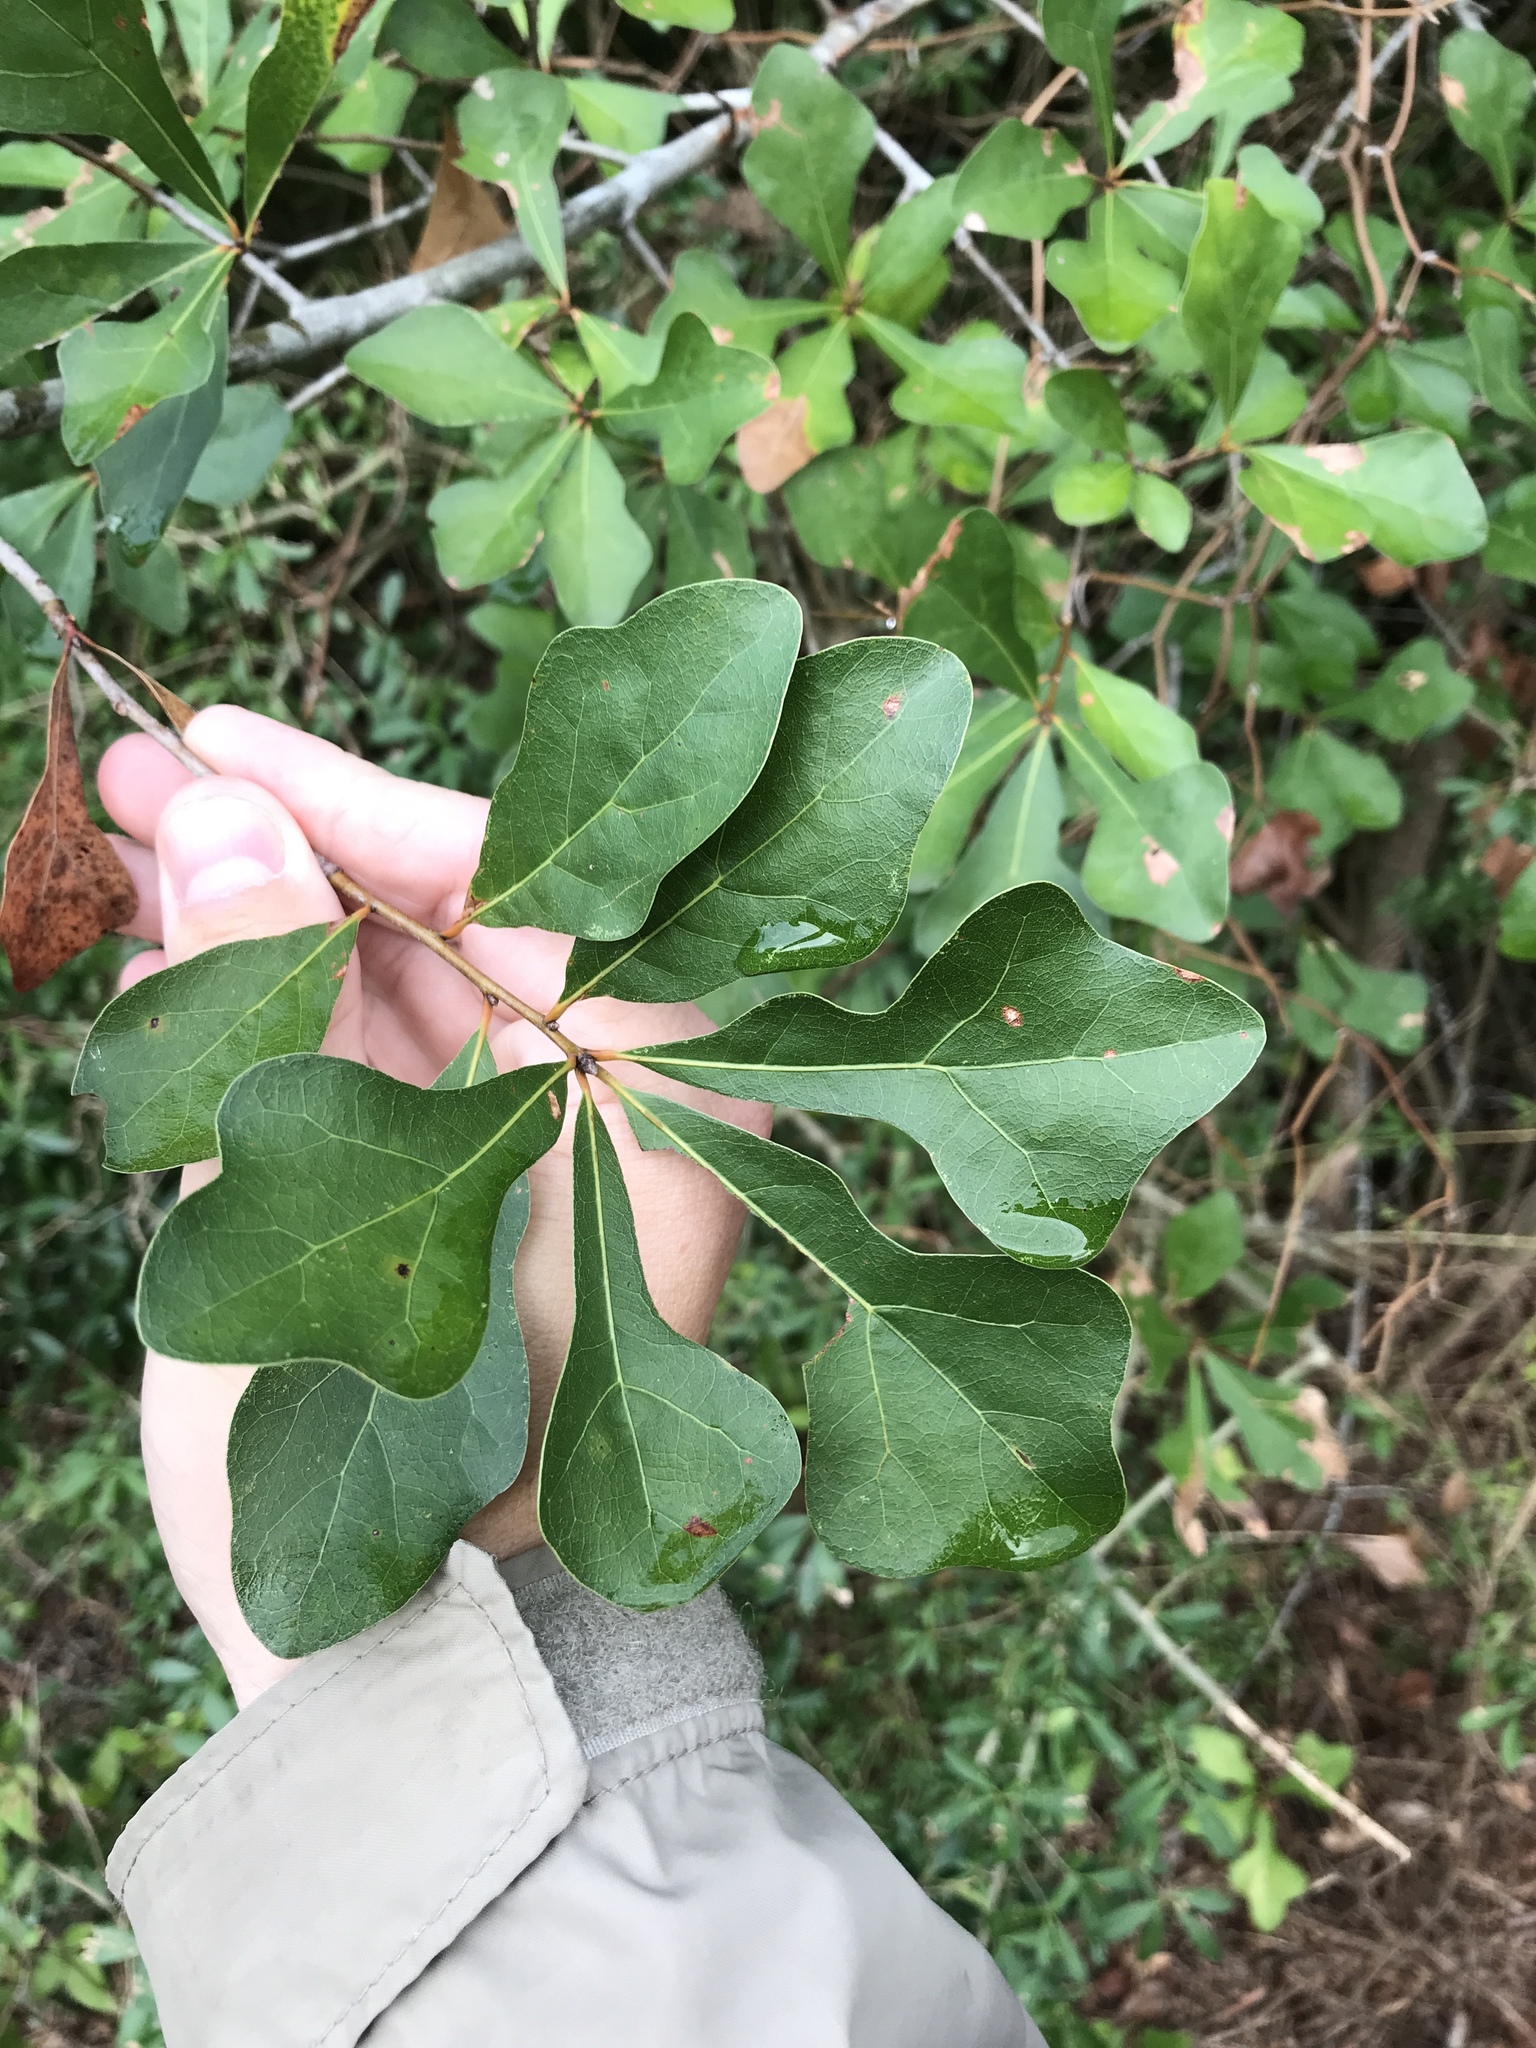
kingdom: Plantae
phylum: Tracheophyta
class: Magnoliopsida
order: Fagales
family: Fagaceae
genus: Quercus
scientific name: Quercus nigra
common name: Water oak
